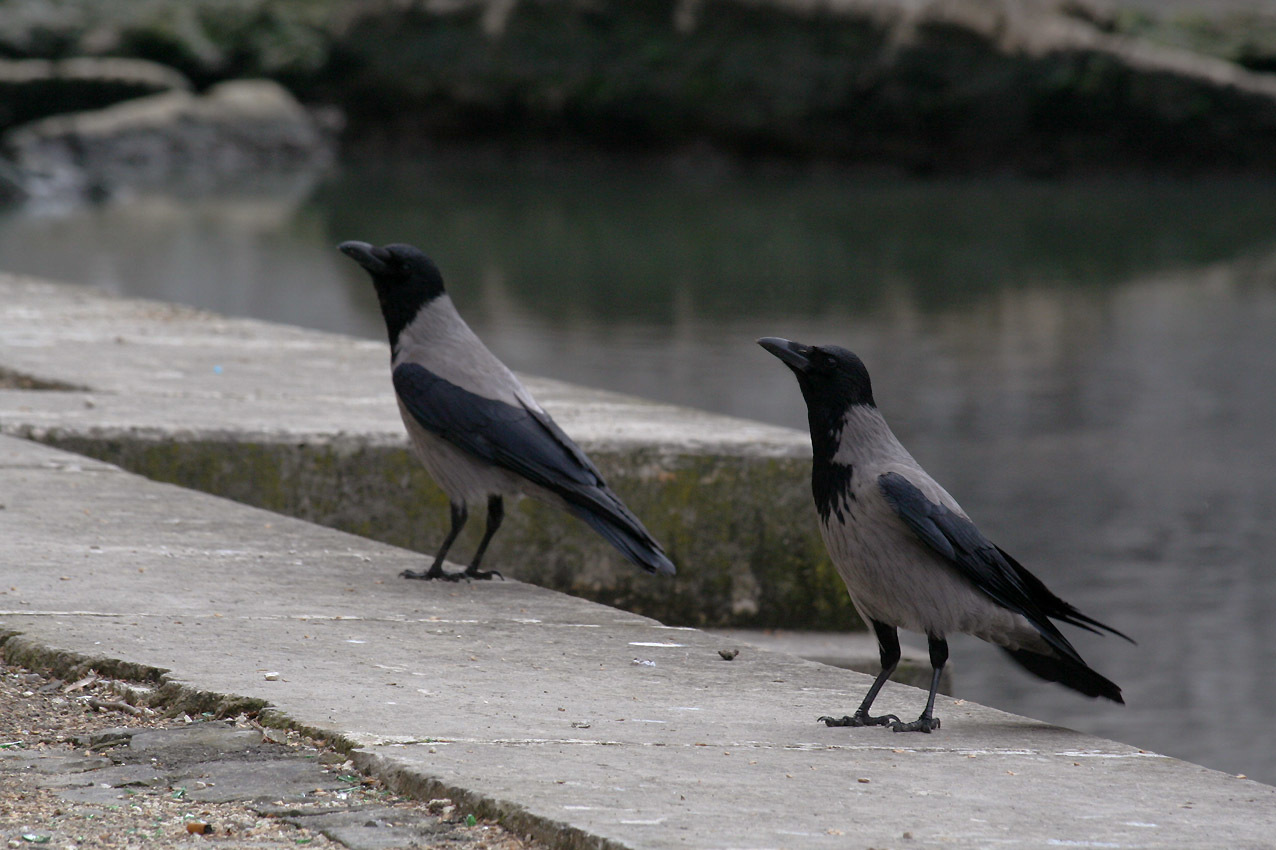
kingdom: Animalia
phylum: Chordata
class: Aves
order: Passeriformes
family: Corvidae
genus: Corvus
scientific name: Corvus cornix
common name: Hooded crow
